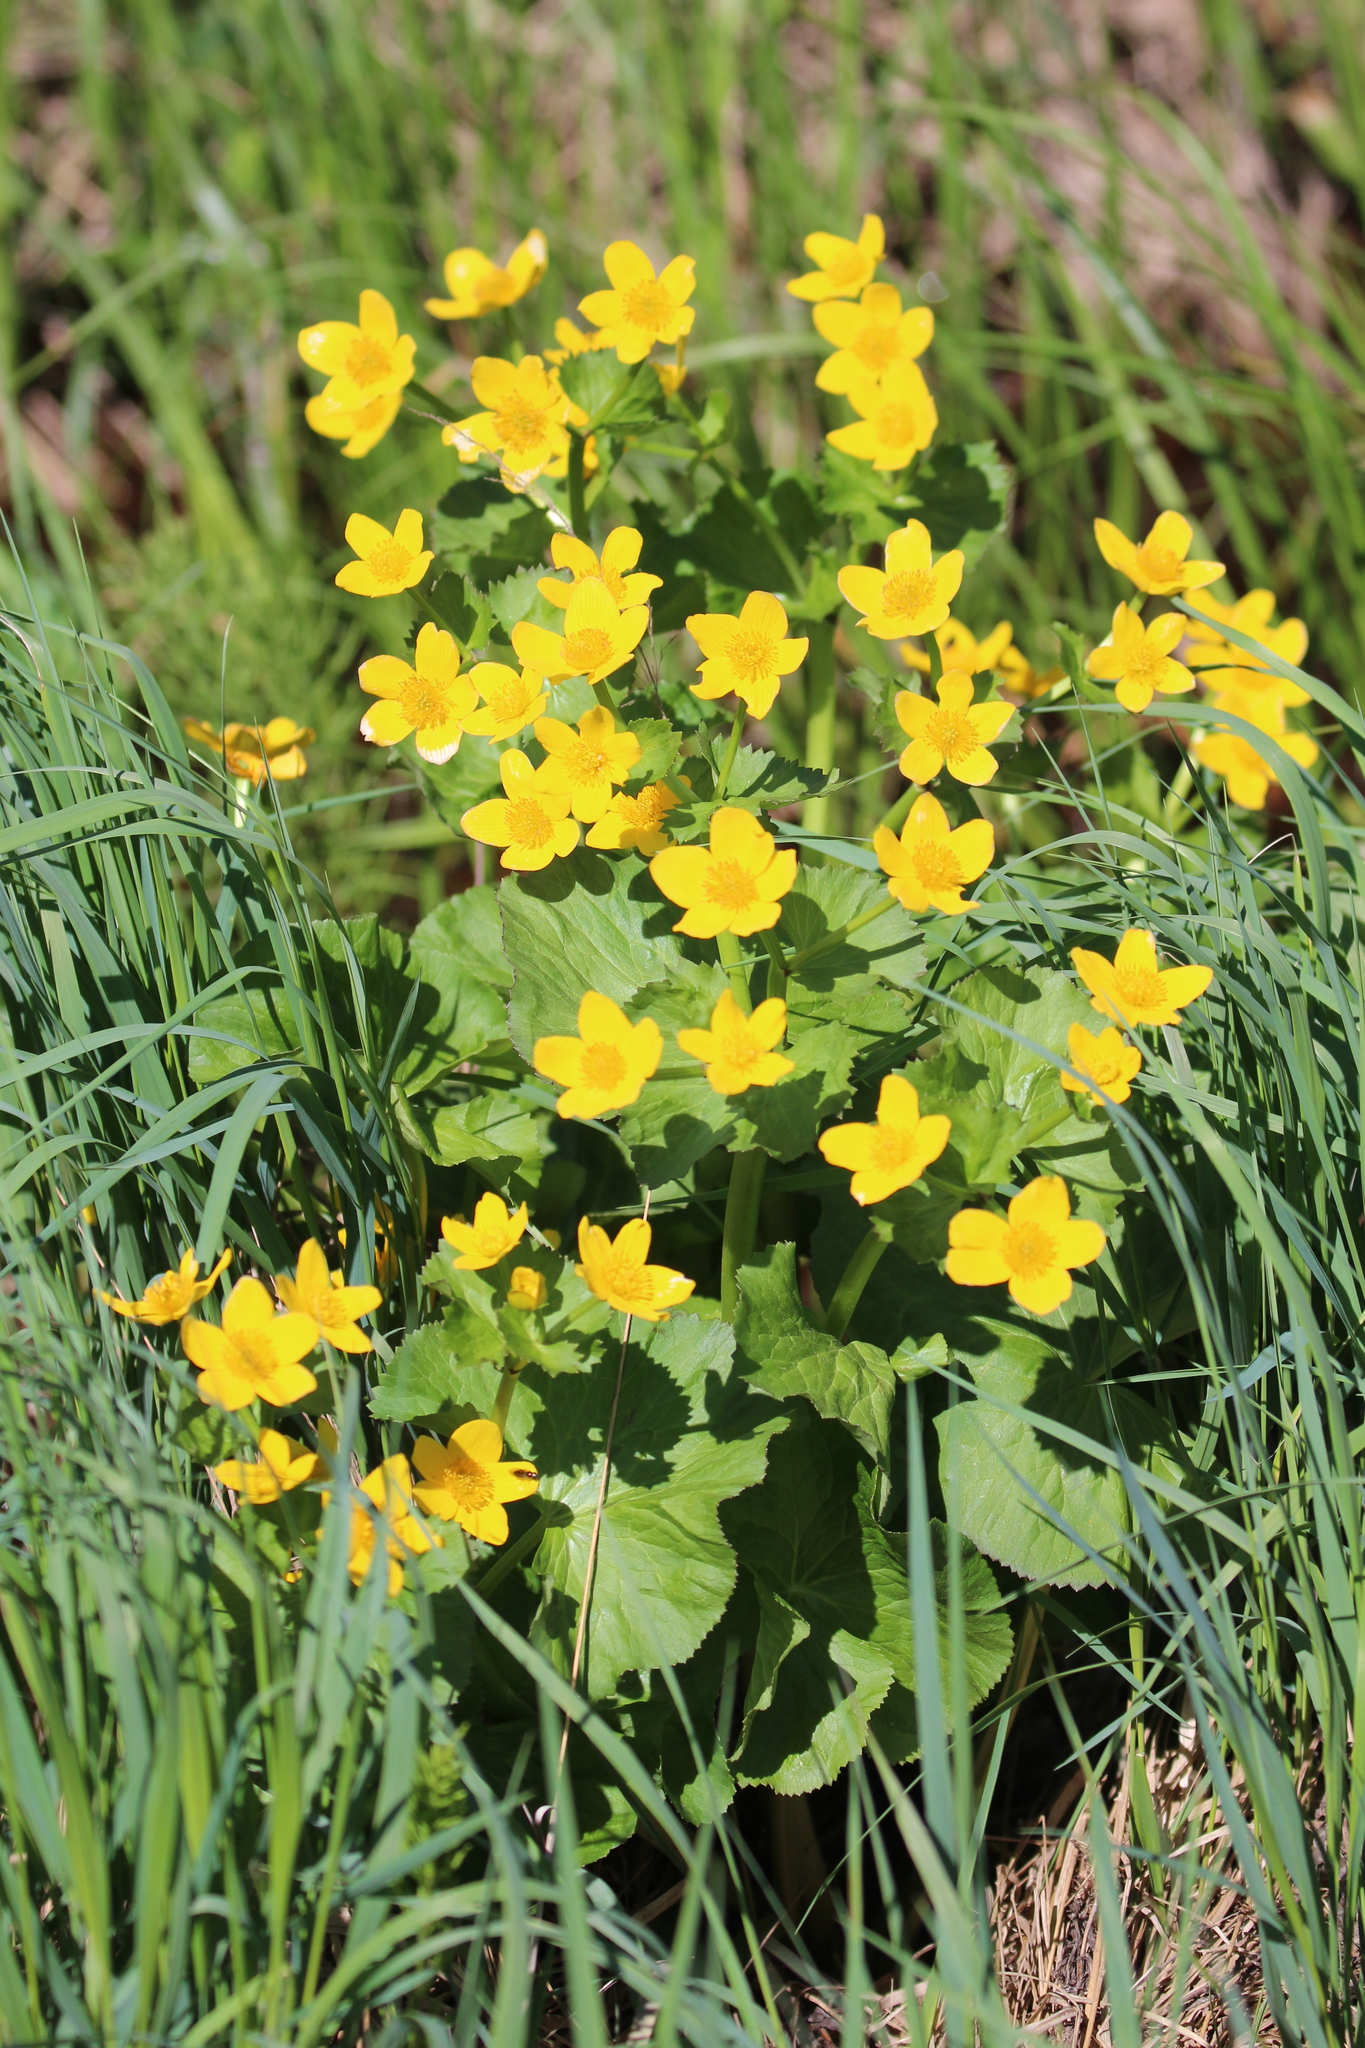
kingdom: Plantae
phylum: Tracheophyta
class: Magnoliopsida
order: Ranunculales
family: Ranunculaceae
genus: Caltha
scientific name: Caltha palustris
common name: Marsh marigold
